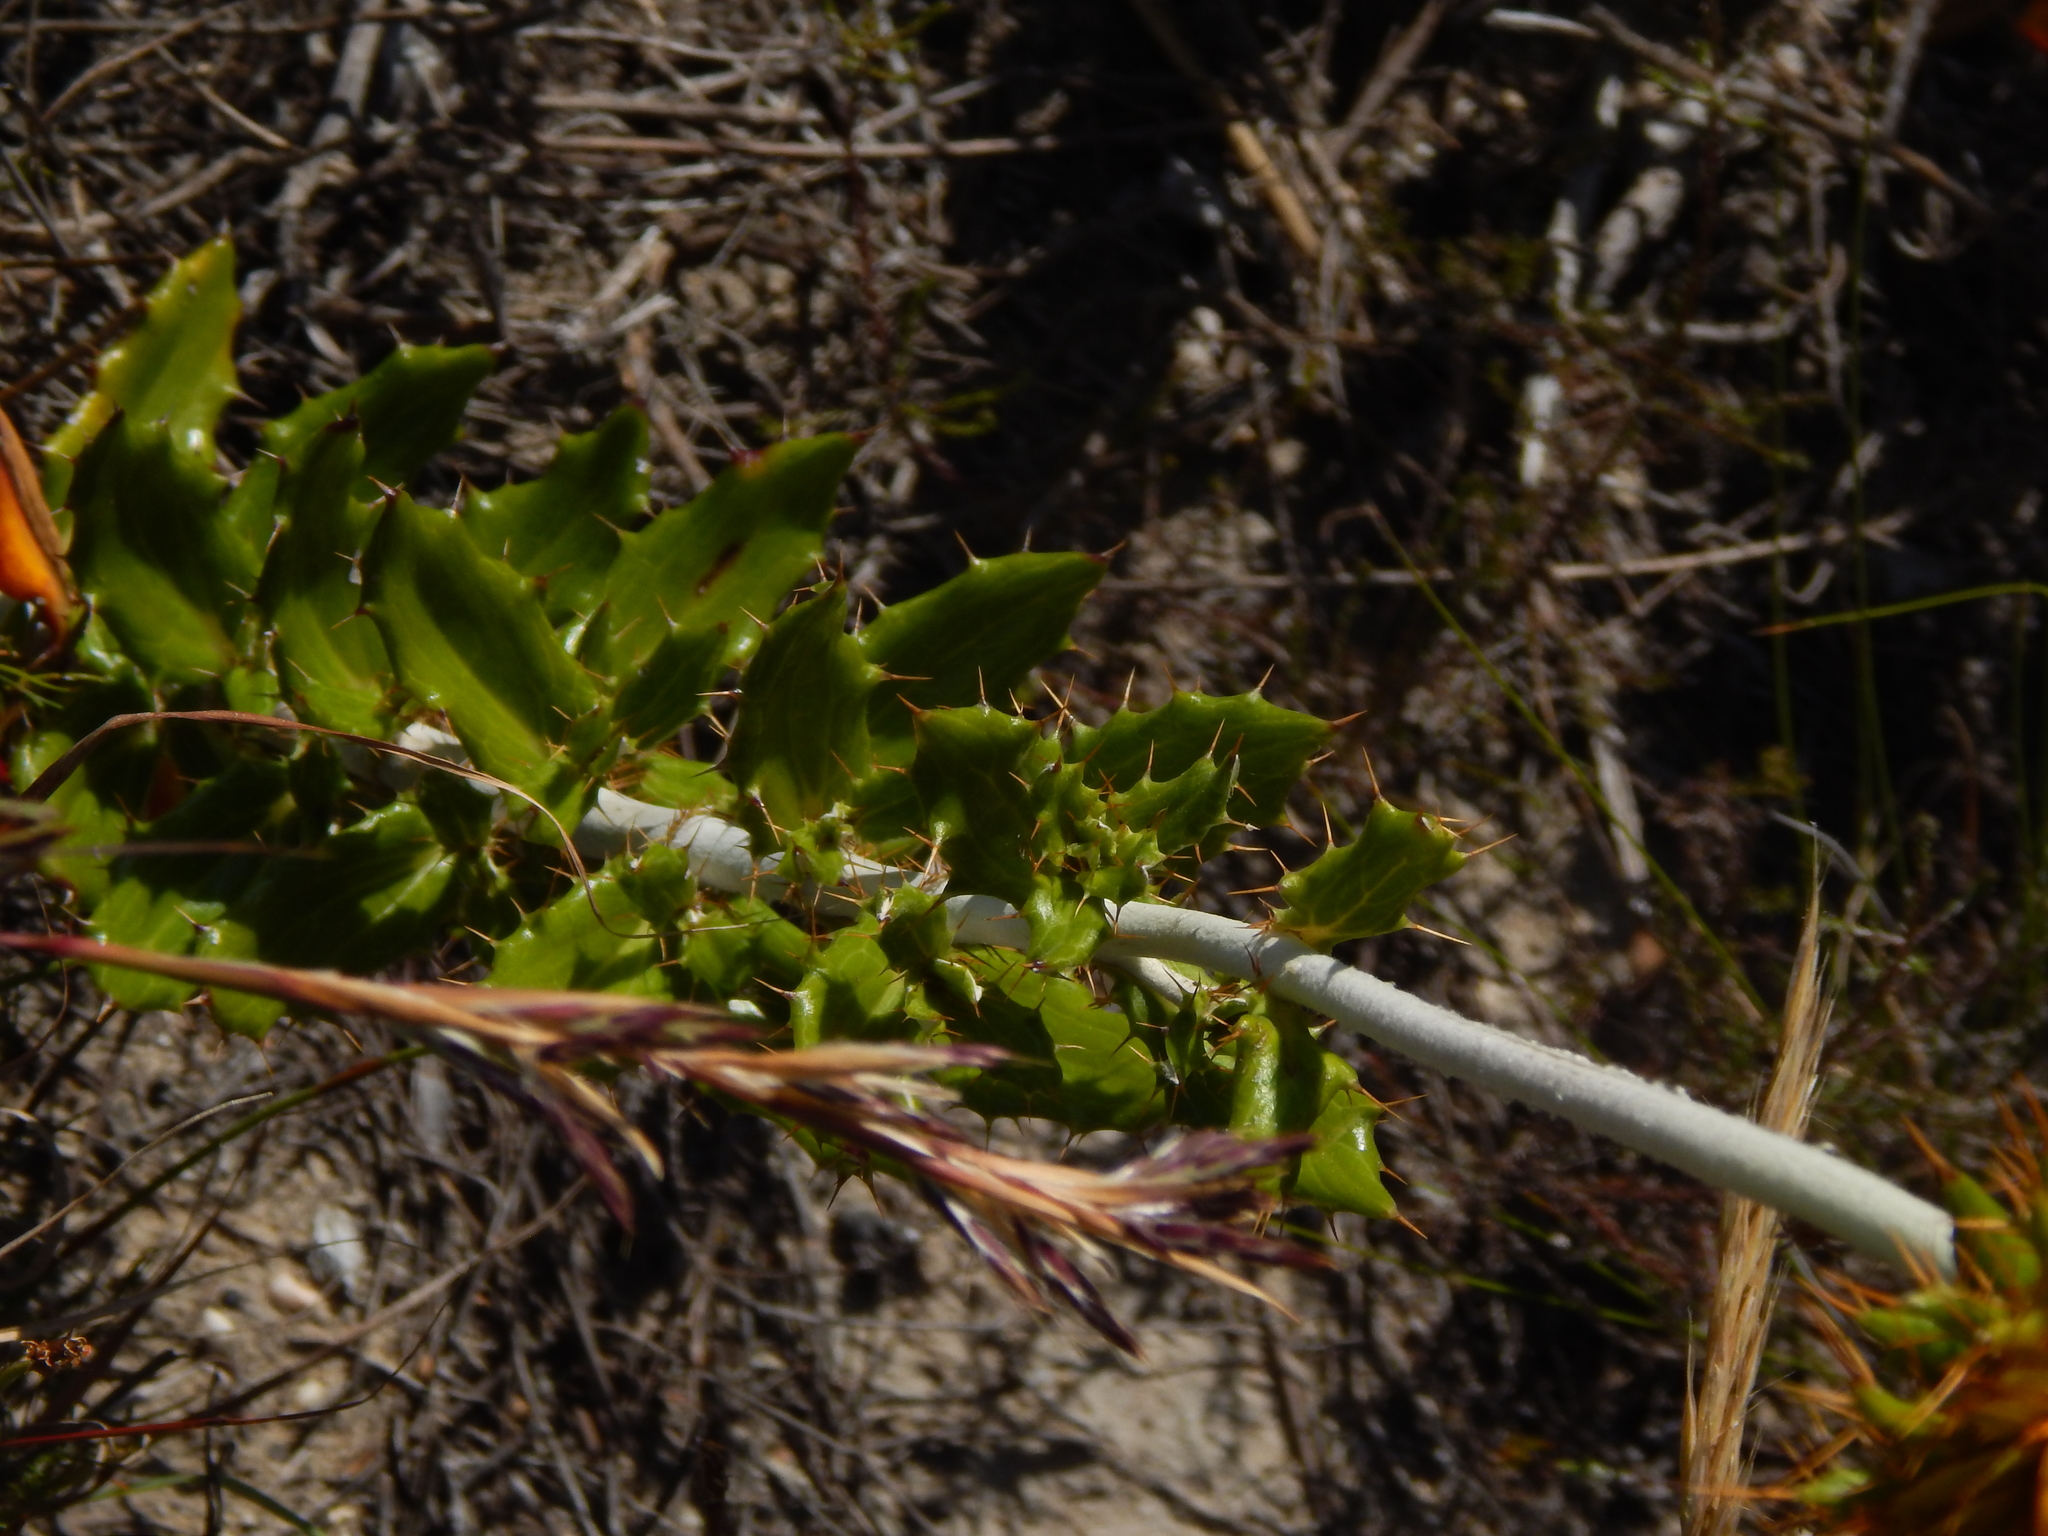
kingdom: Plantae
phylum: Tracheophyta
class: Magnoliopsida
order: Asterales
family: Asteraceae
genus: Berkheya
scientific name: Berkheya barbata
